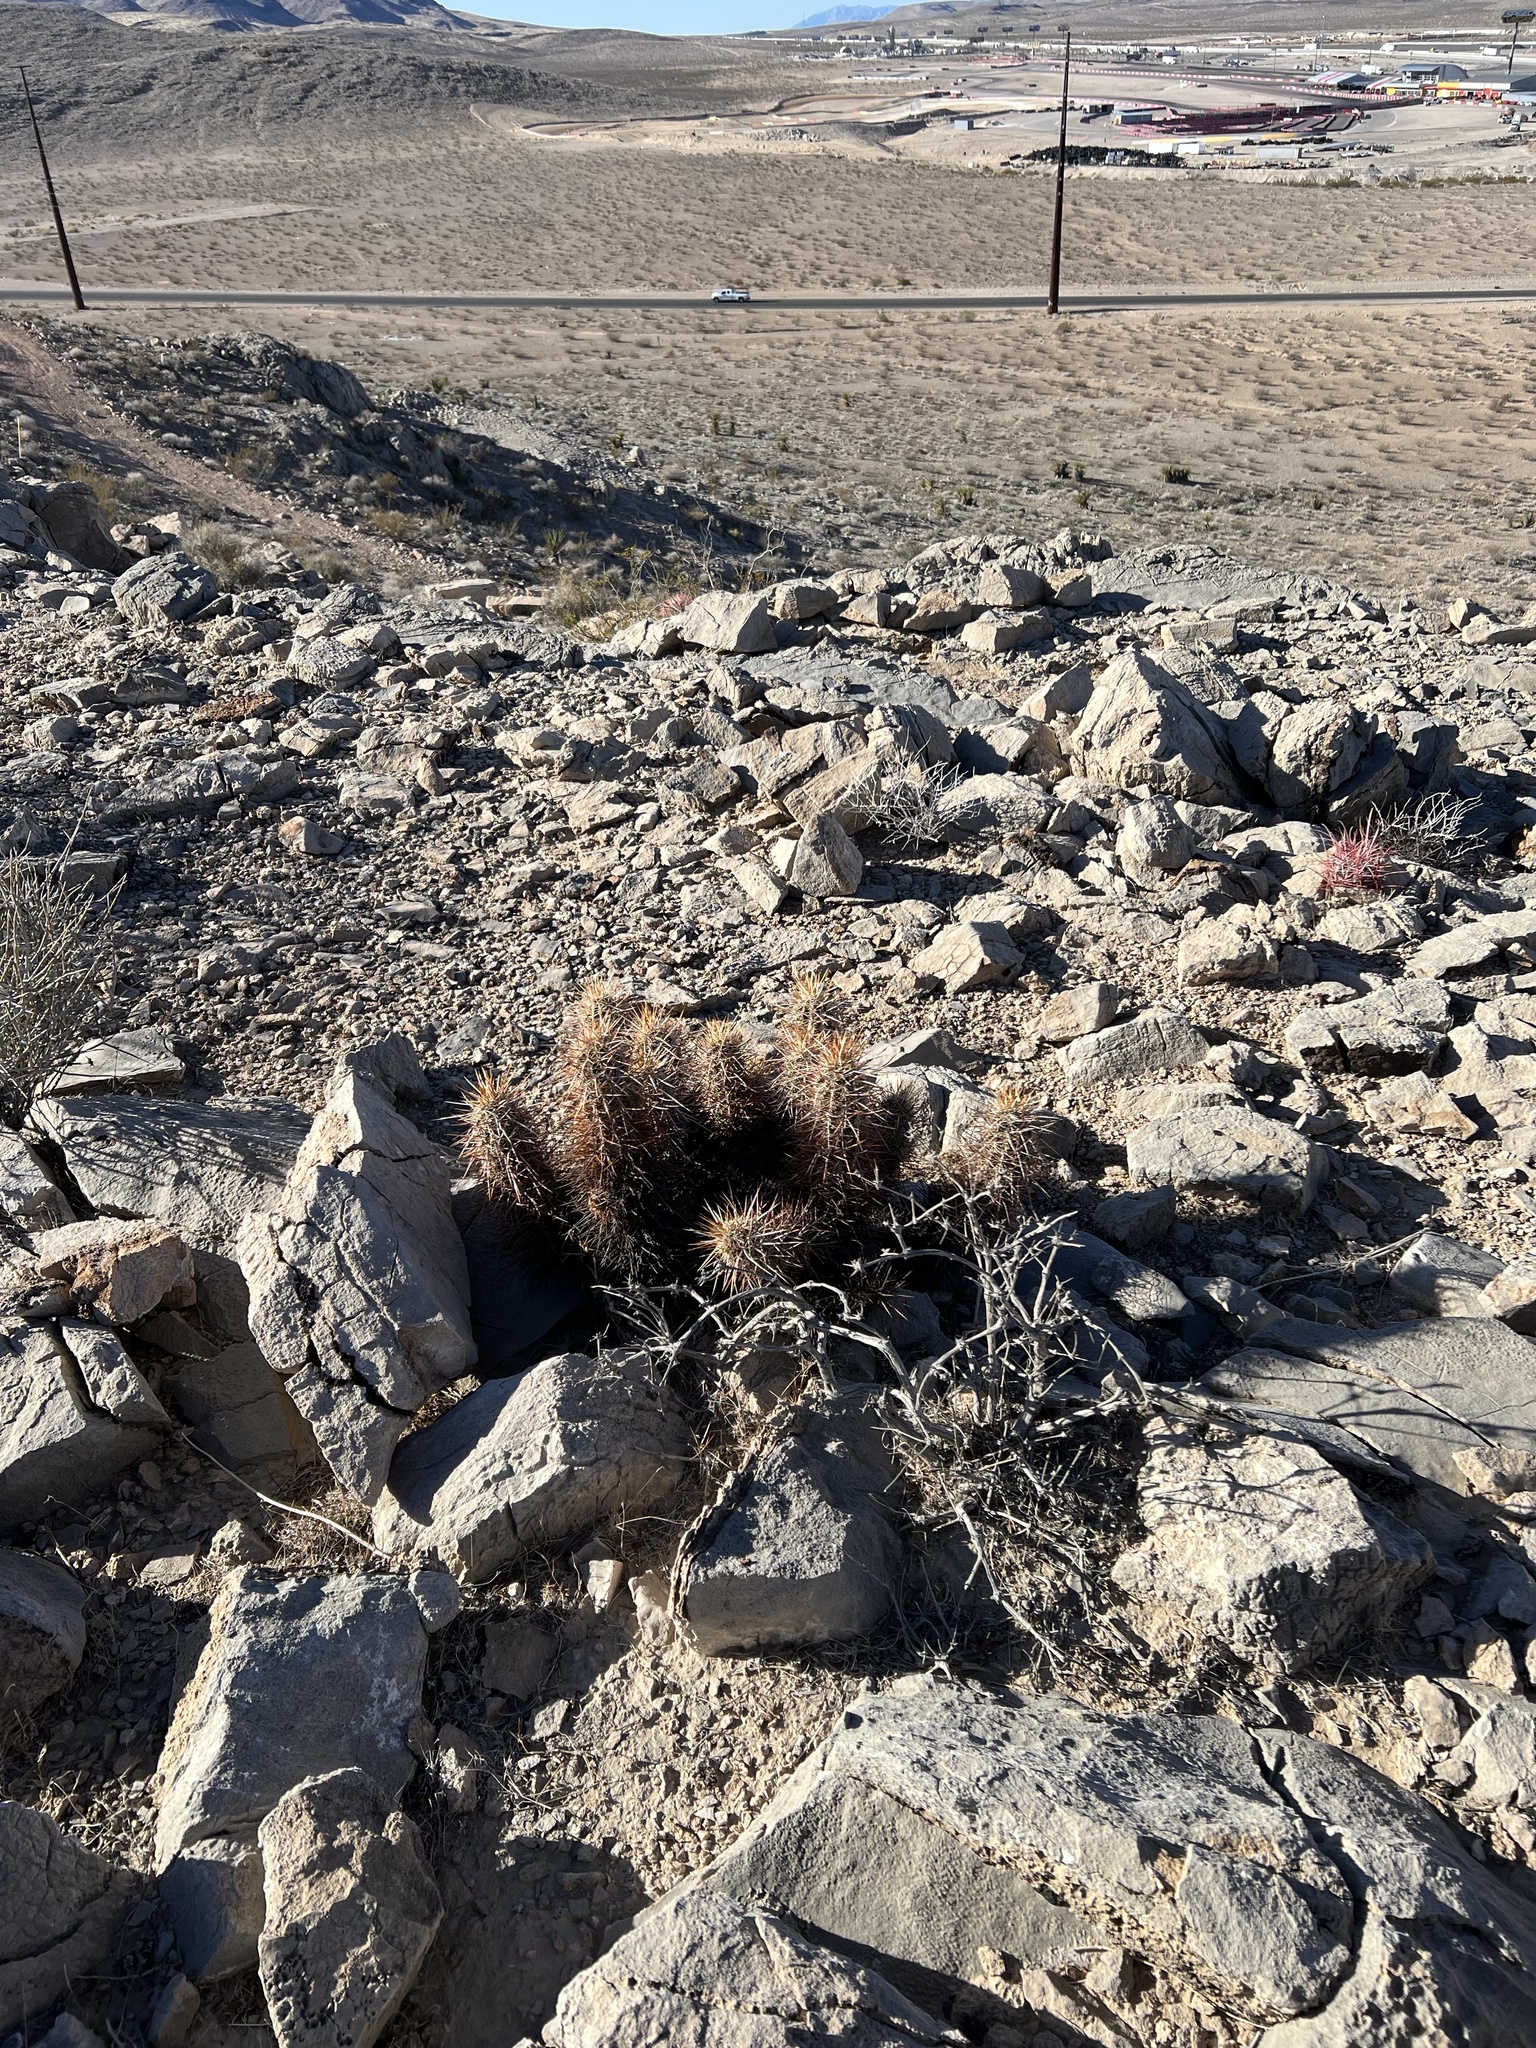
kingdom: Plantae
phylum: Tracheophyta
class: Magnoliopsida
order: Caryophyllales
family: Cactaceae
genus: Echinocereus
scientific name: Echinocereus engelmannii
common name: Engelmann's hedgehog cactus
